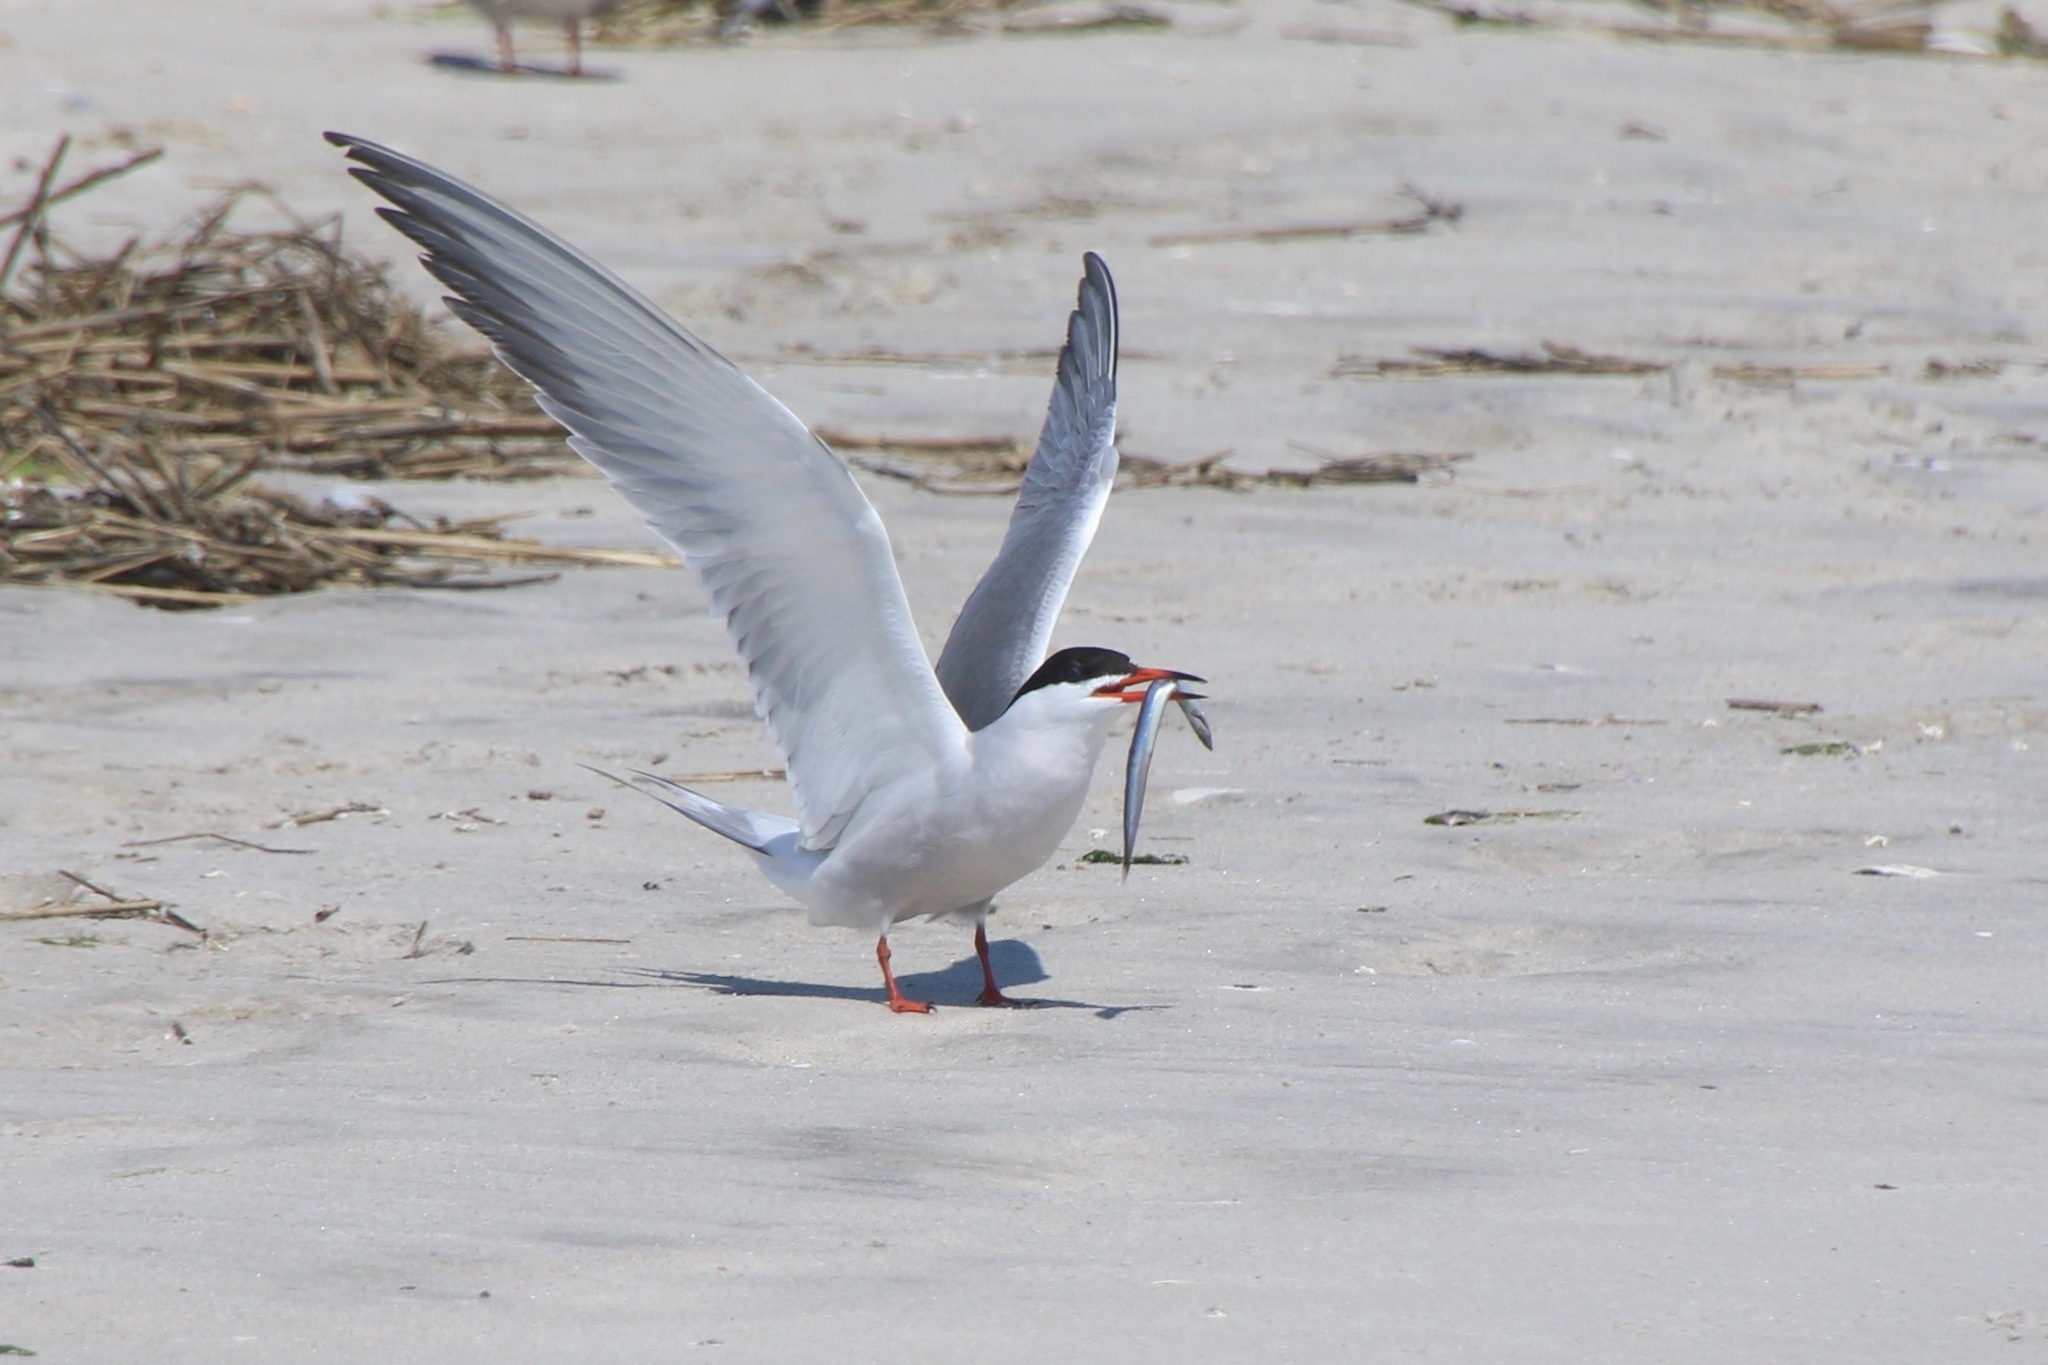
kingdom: Animalia
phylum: Chordata
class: Aves
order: Charadriiformes
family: Laridae
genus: Sterna
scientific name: Sterna hirundo
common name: Common tern
